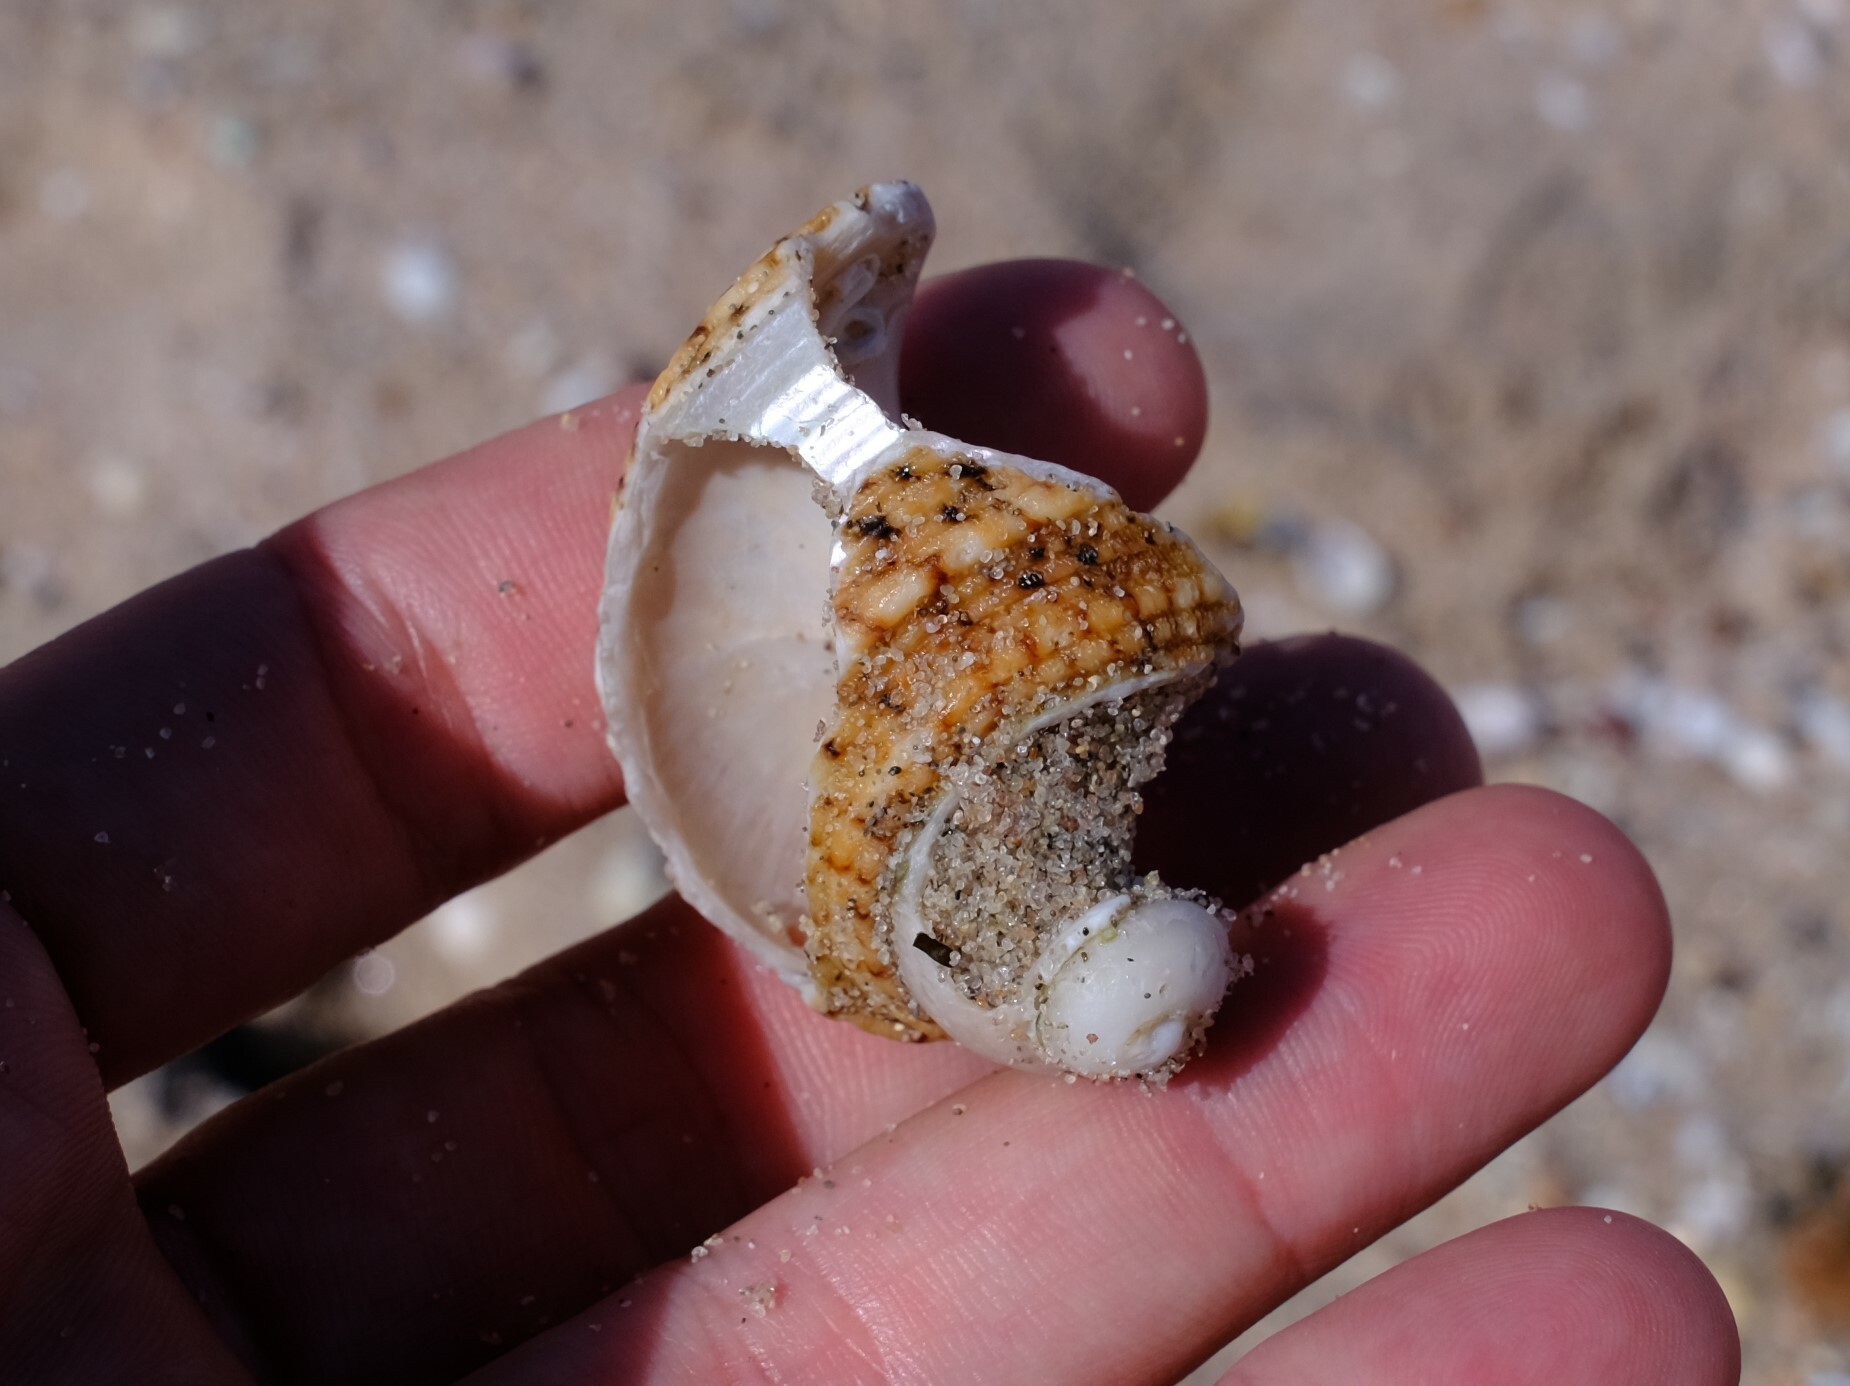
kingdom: Animalia
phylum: Mollusca
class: Gastropoda
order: Trochida
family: Turbinidae
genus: Turbo
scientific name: Turbo kenwilliamsi
